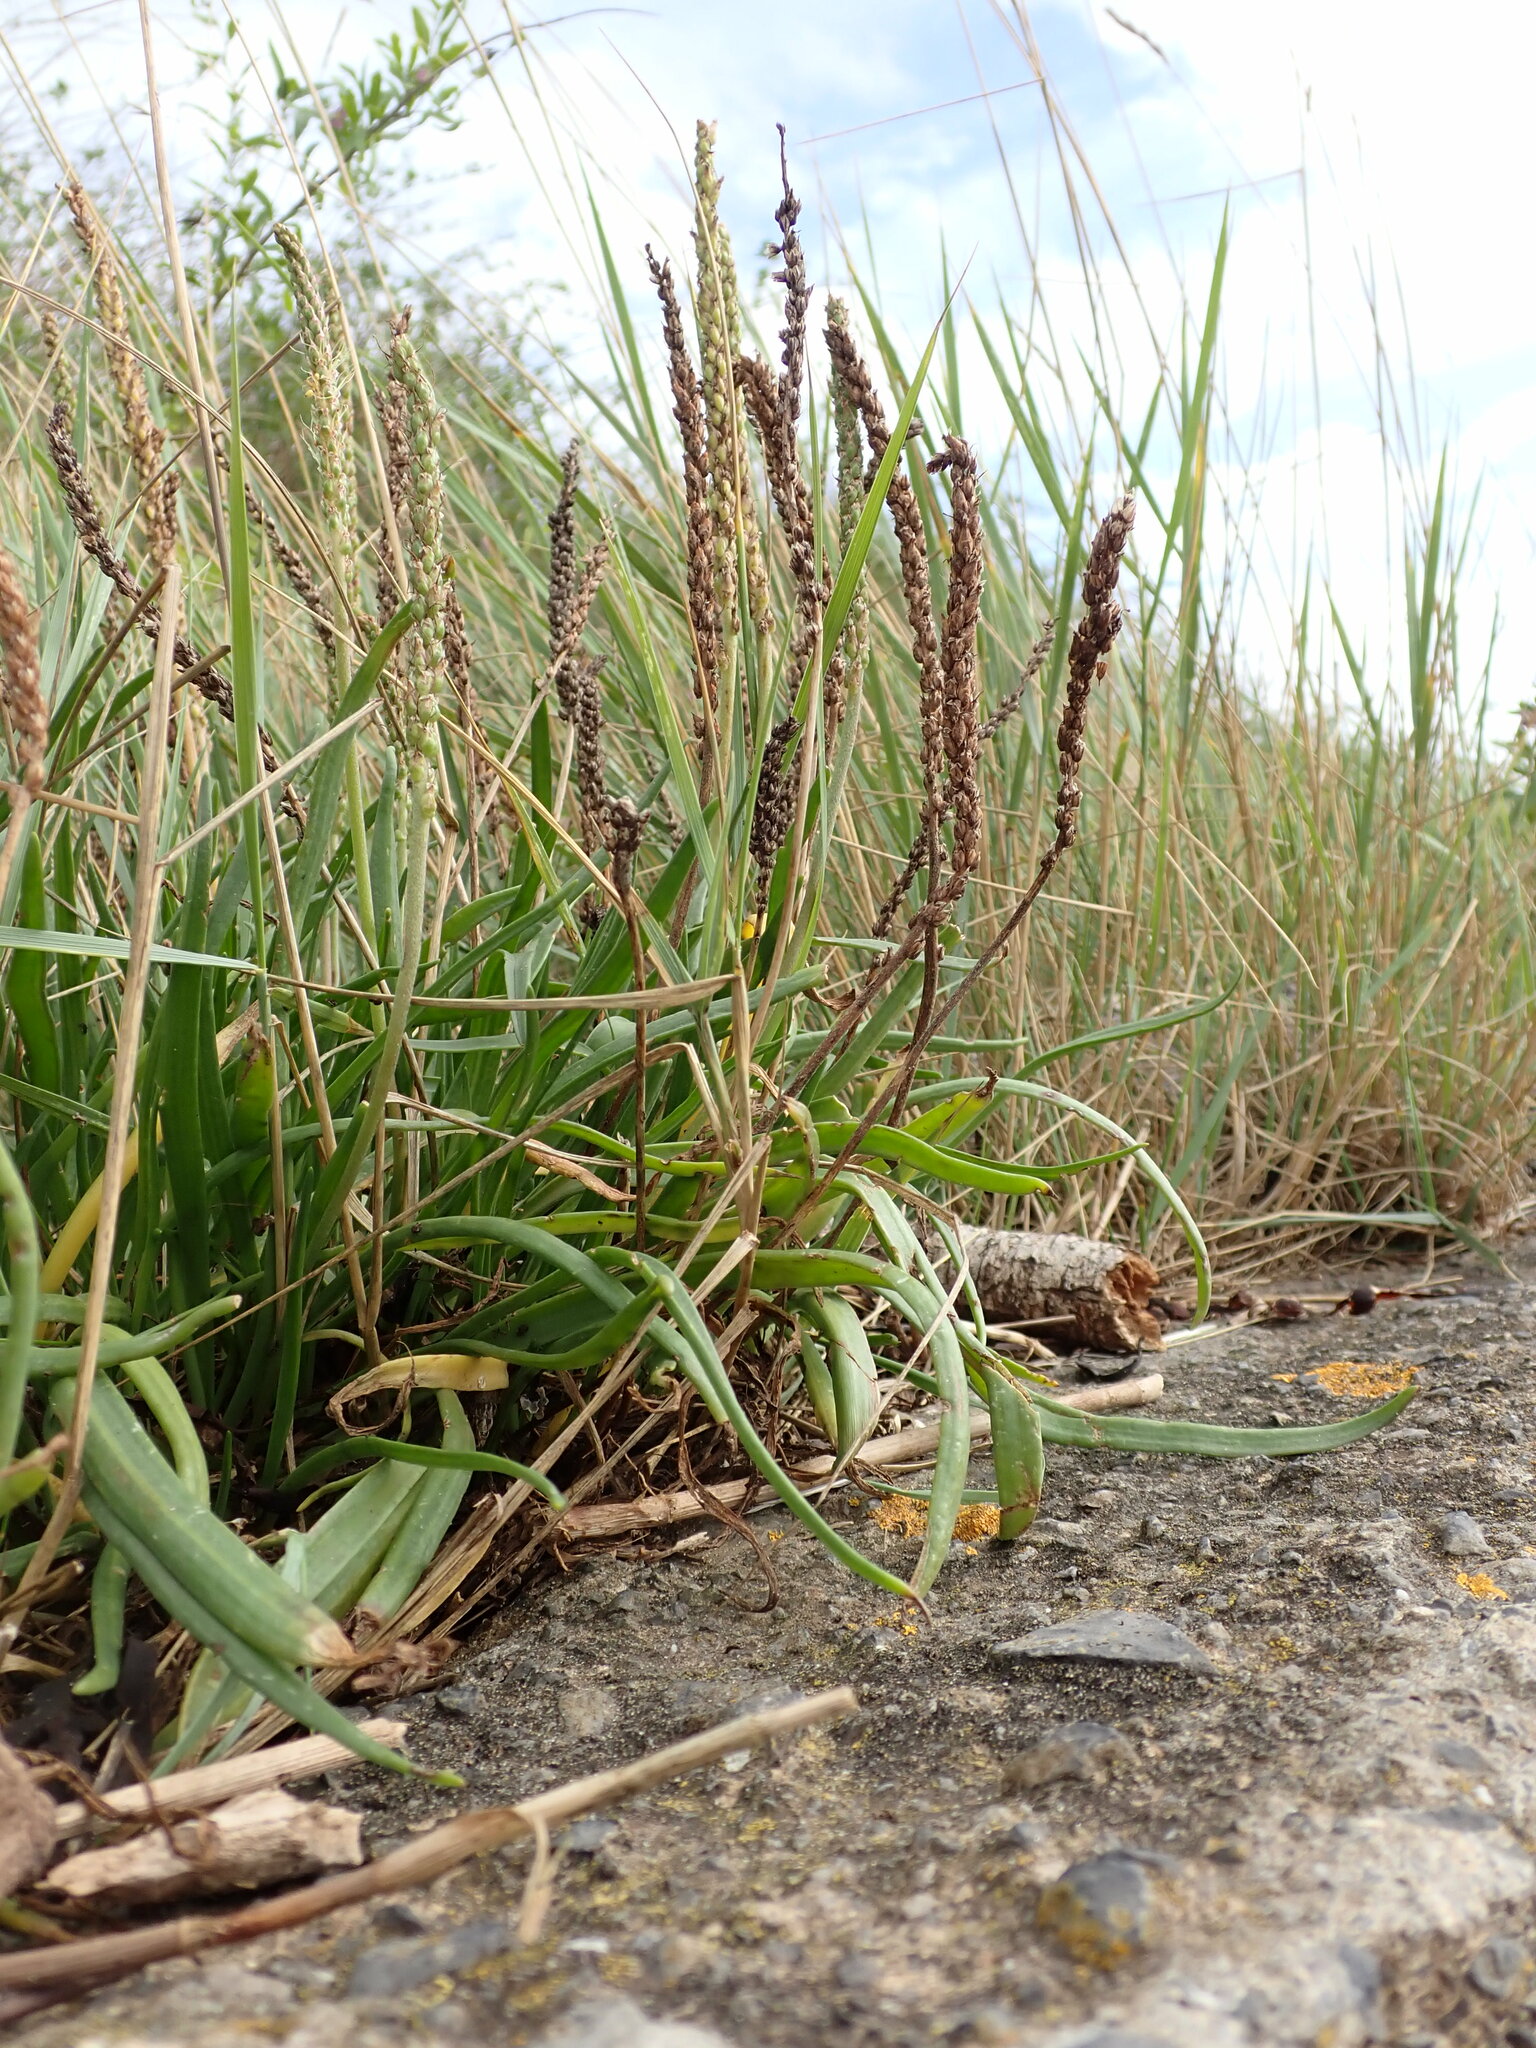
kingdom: Plantae
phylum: Tracheophyta
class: Magnoliopsida
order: Lamiales
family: Plantaginaceae
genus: Plantago
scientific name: Plantago maritima
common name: Sea plantain
